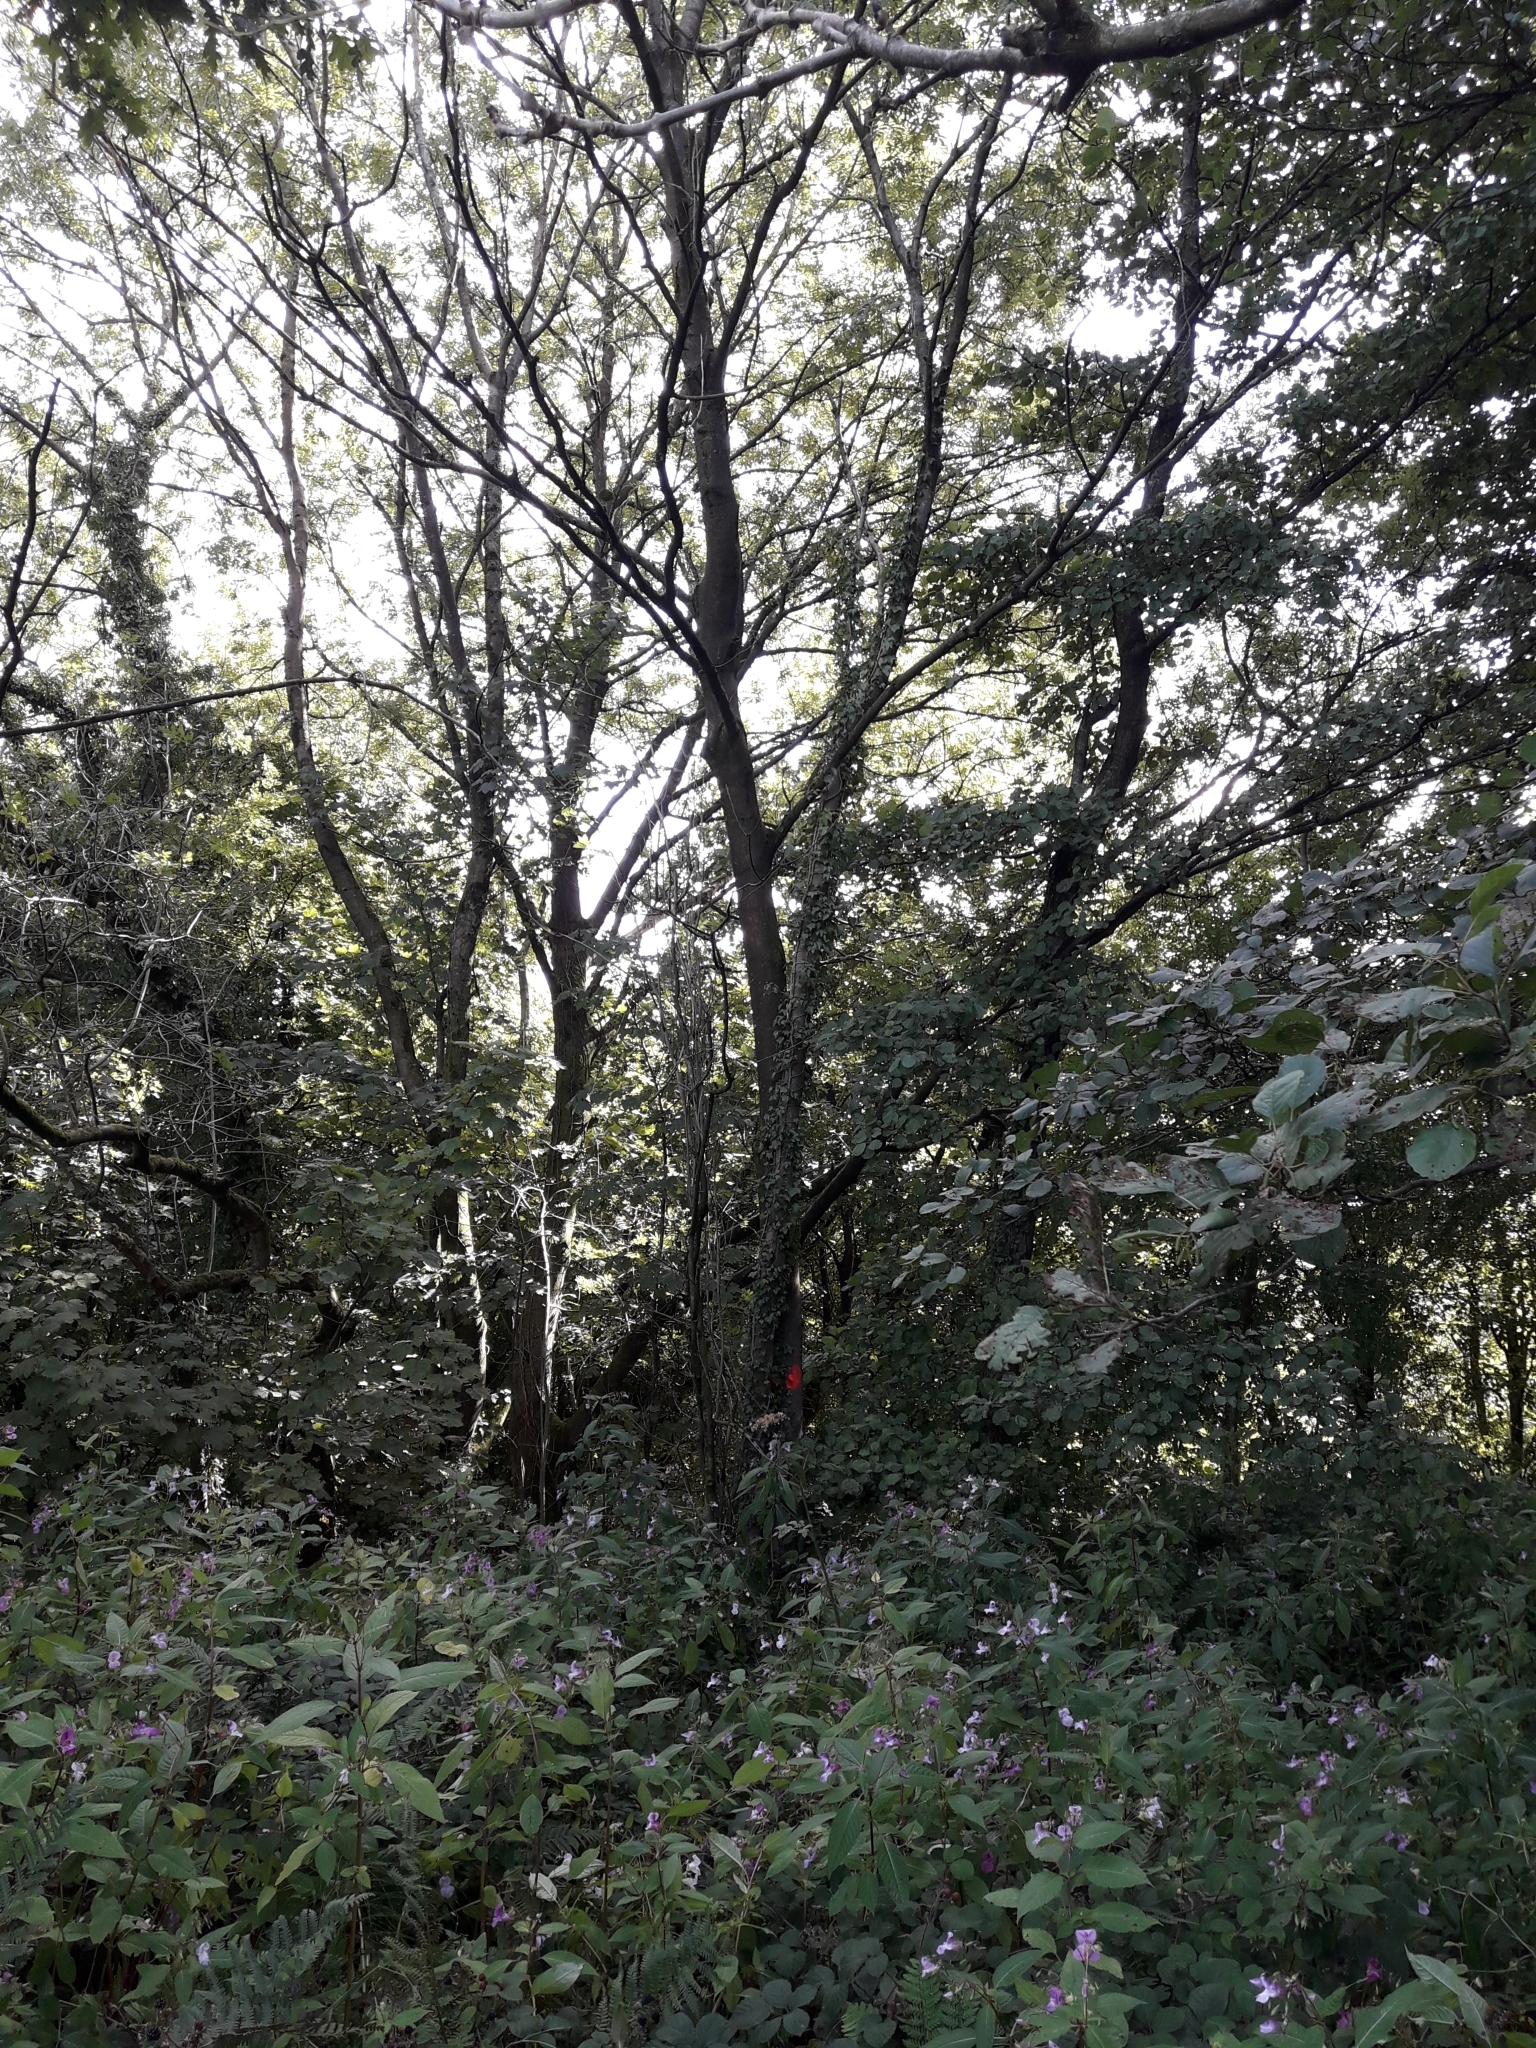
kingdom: Plantae
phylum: Tracheophyta
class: Magnoliopsida
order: Lamiales
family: Oleaceae
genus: Fraxinus
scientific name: Fraxinus excelsior
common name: European ash
